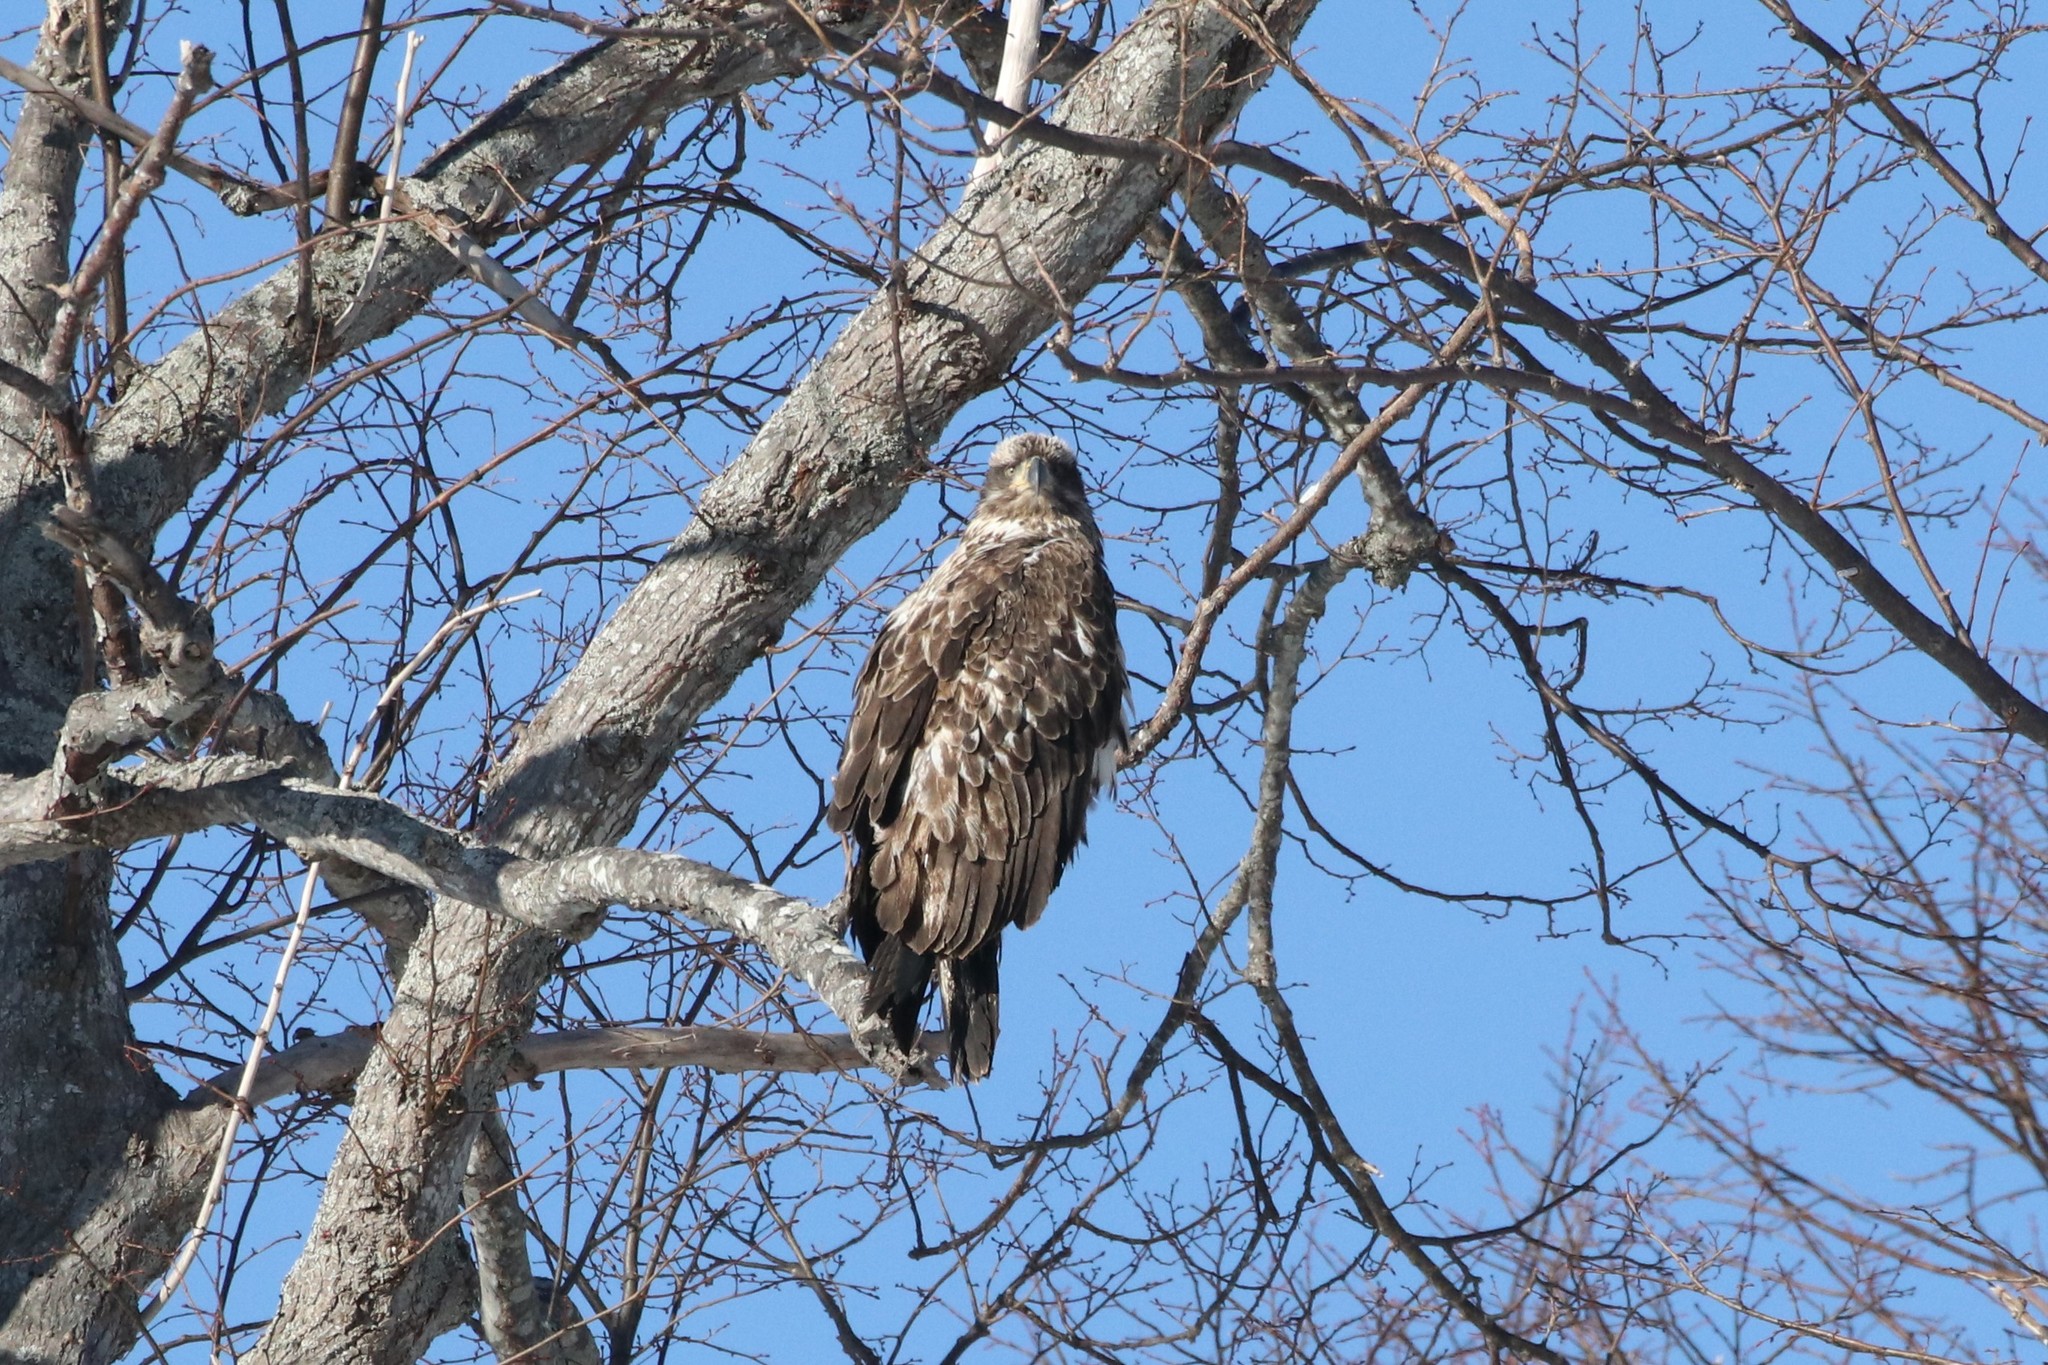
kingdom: Animalia
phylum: Chordata
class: Aves
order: Accipitriformes
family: Accipitridae
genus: Haliaeetus
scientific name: Haliaeetus leucocephalus
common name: Bald eagle
